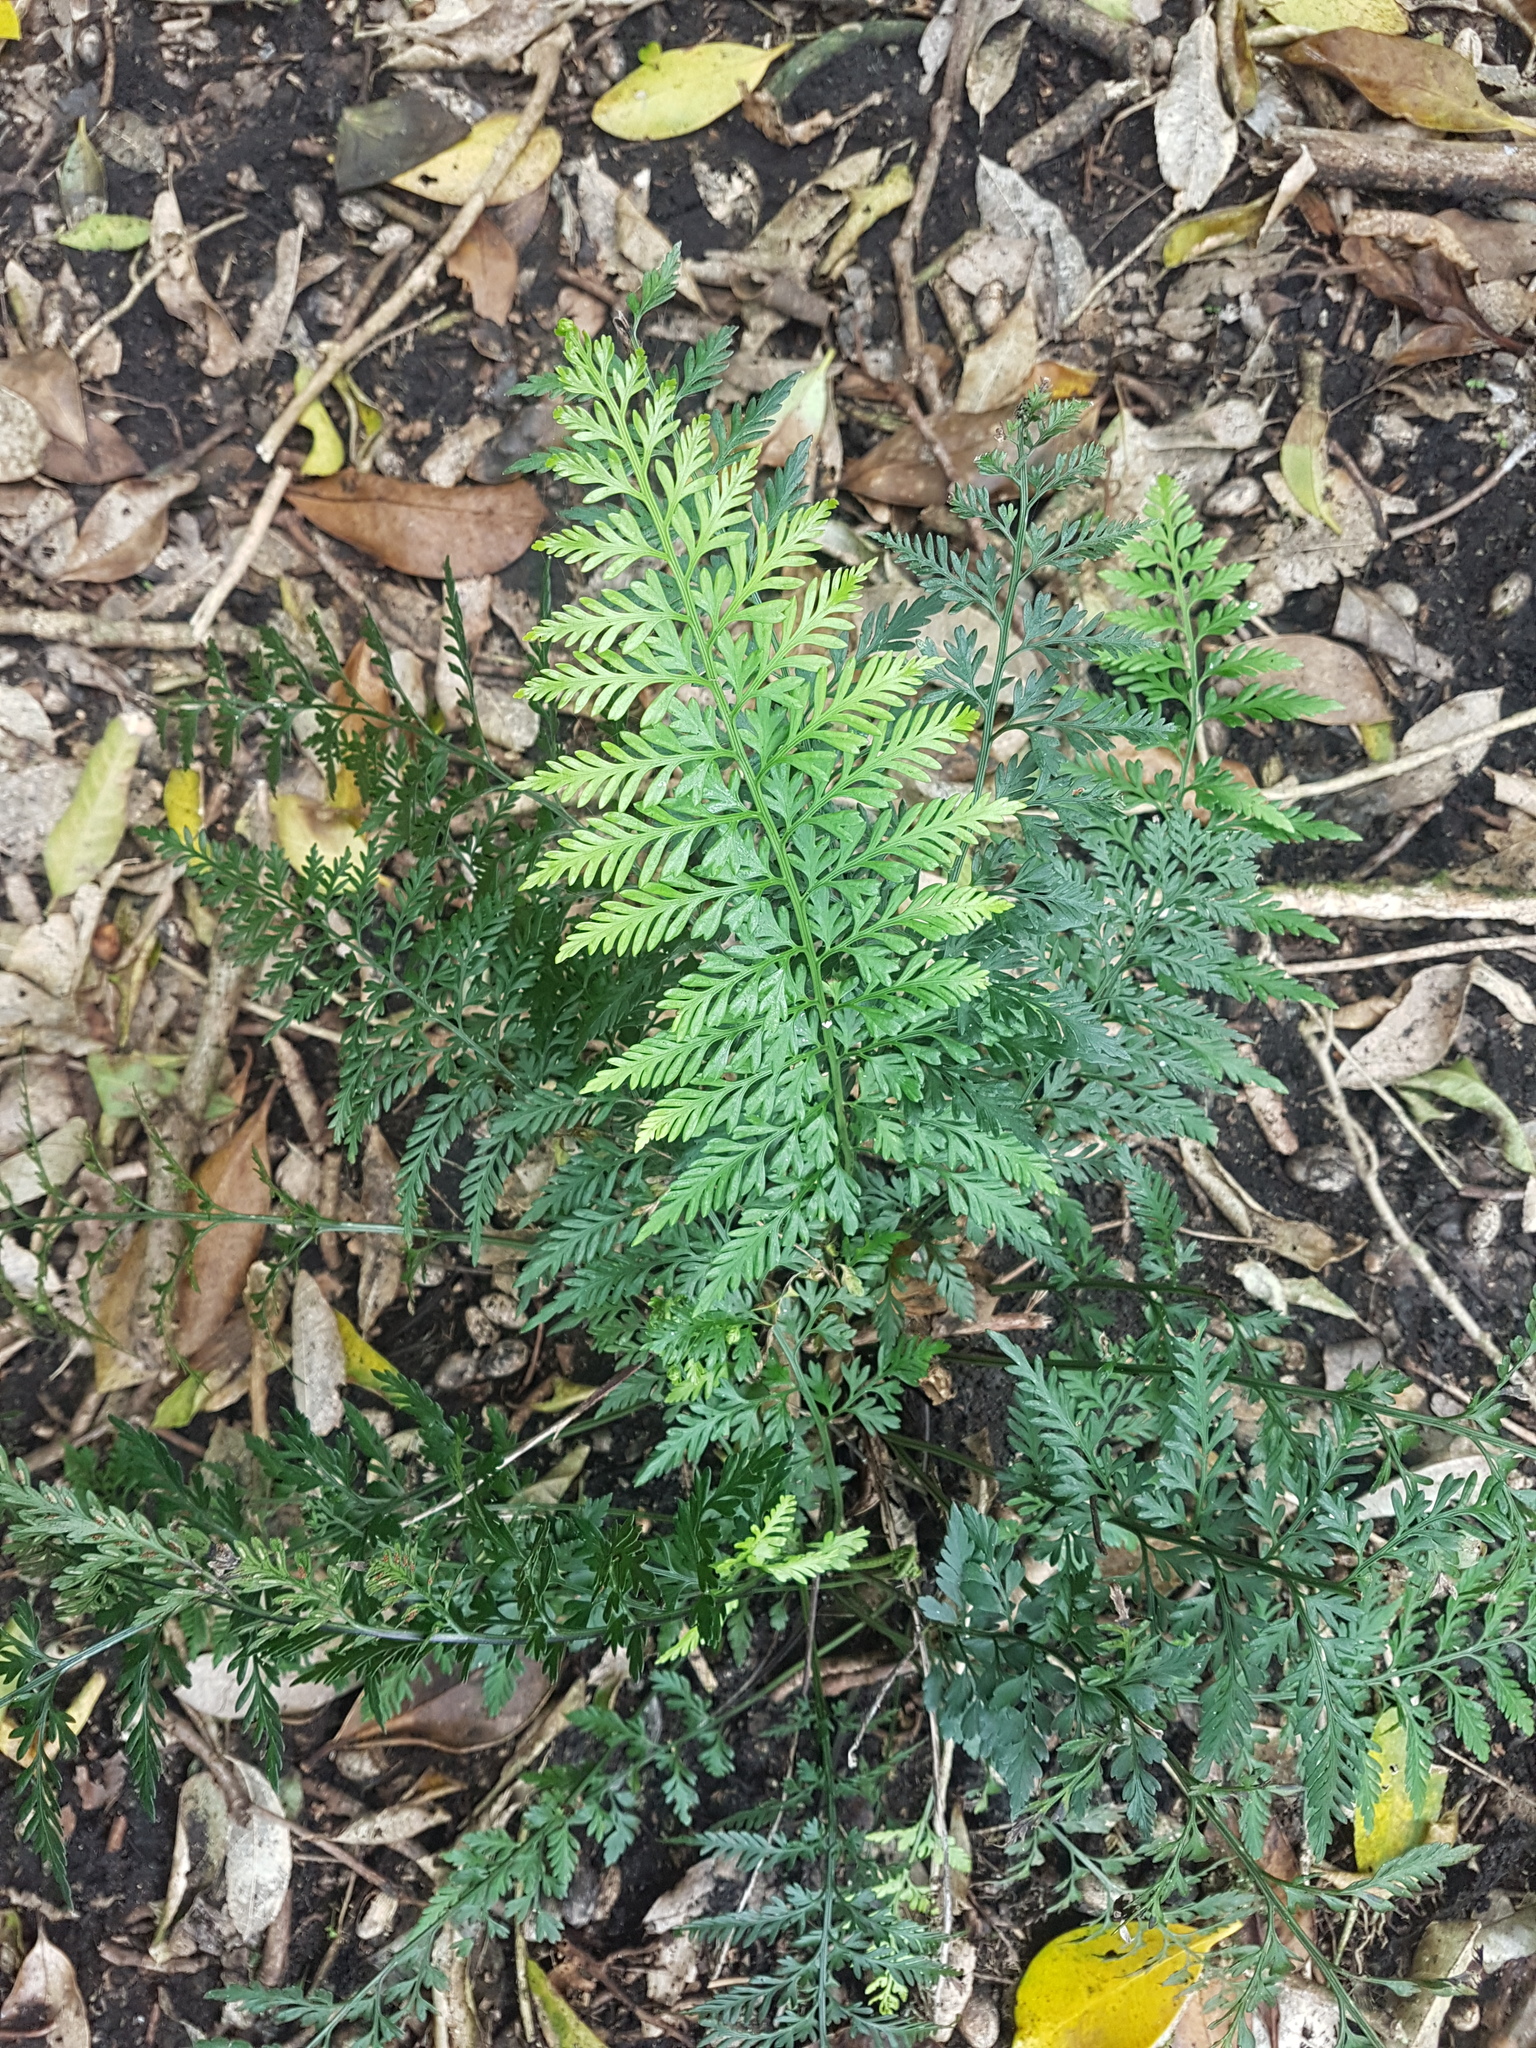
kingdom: Plantae
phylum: Tracheophyta
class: Polypodiopsida
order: Polypodiales
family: Aspleniaceae
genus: Asplenium
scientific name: Asplenium appendiculatum
